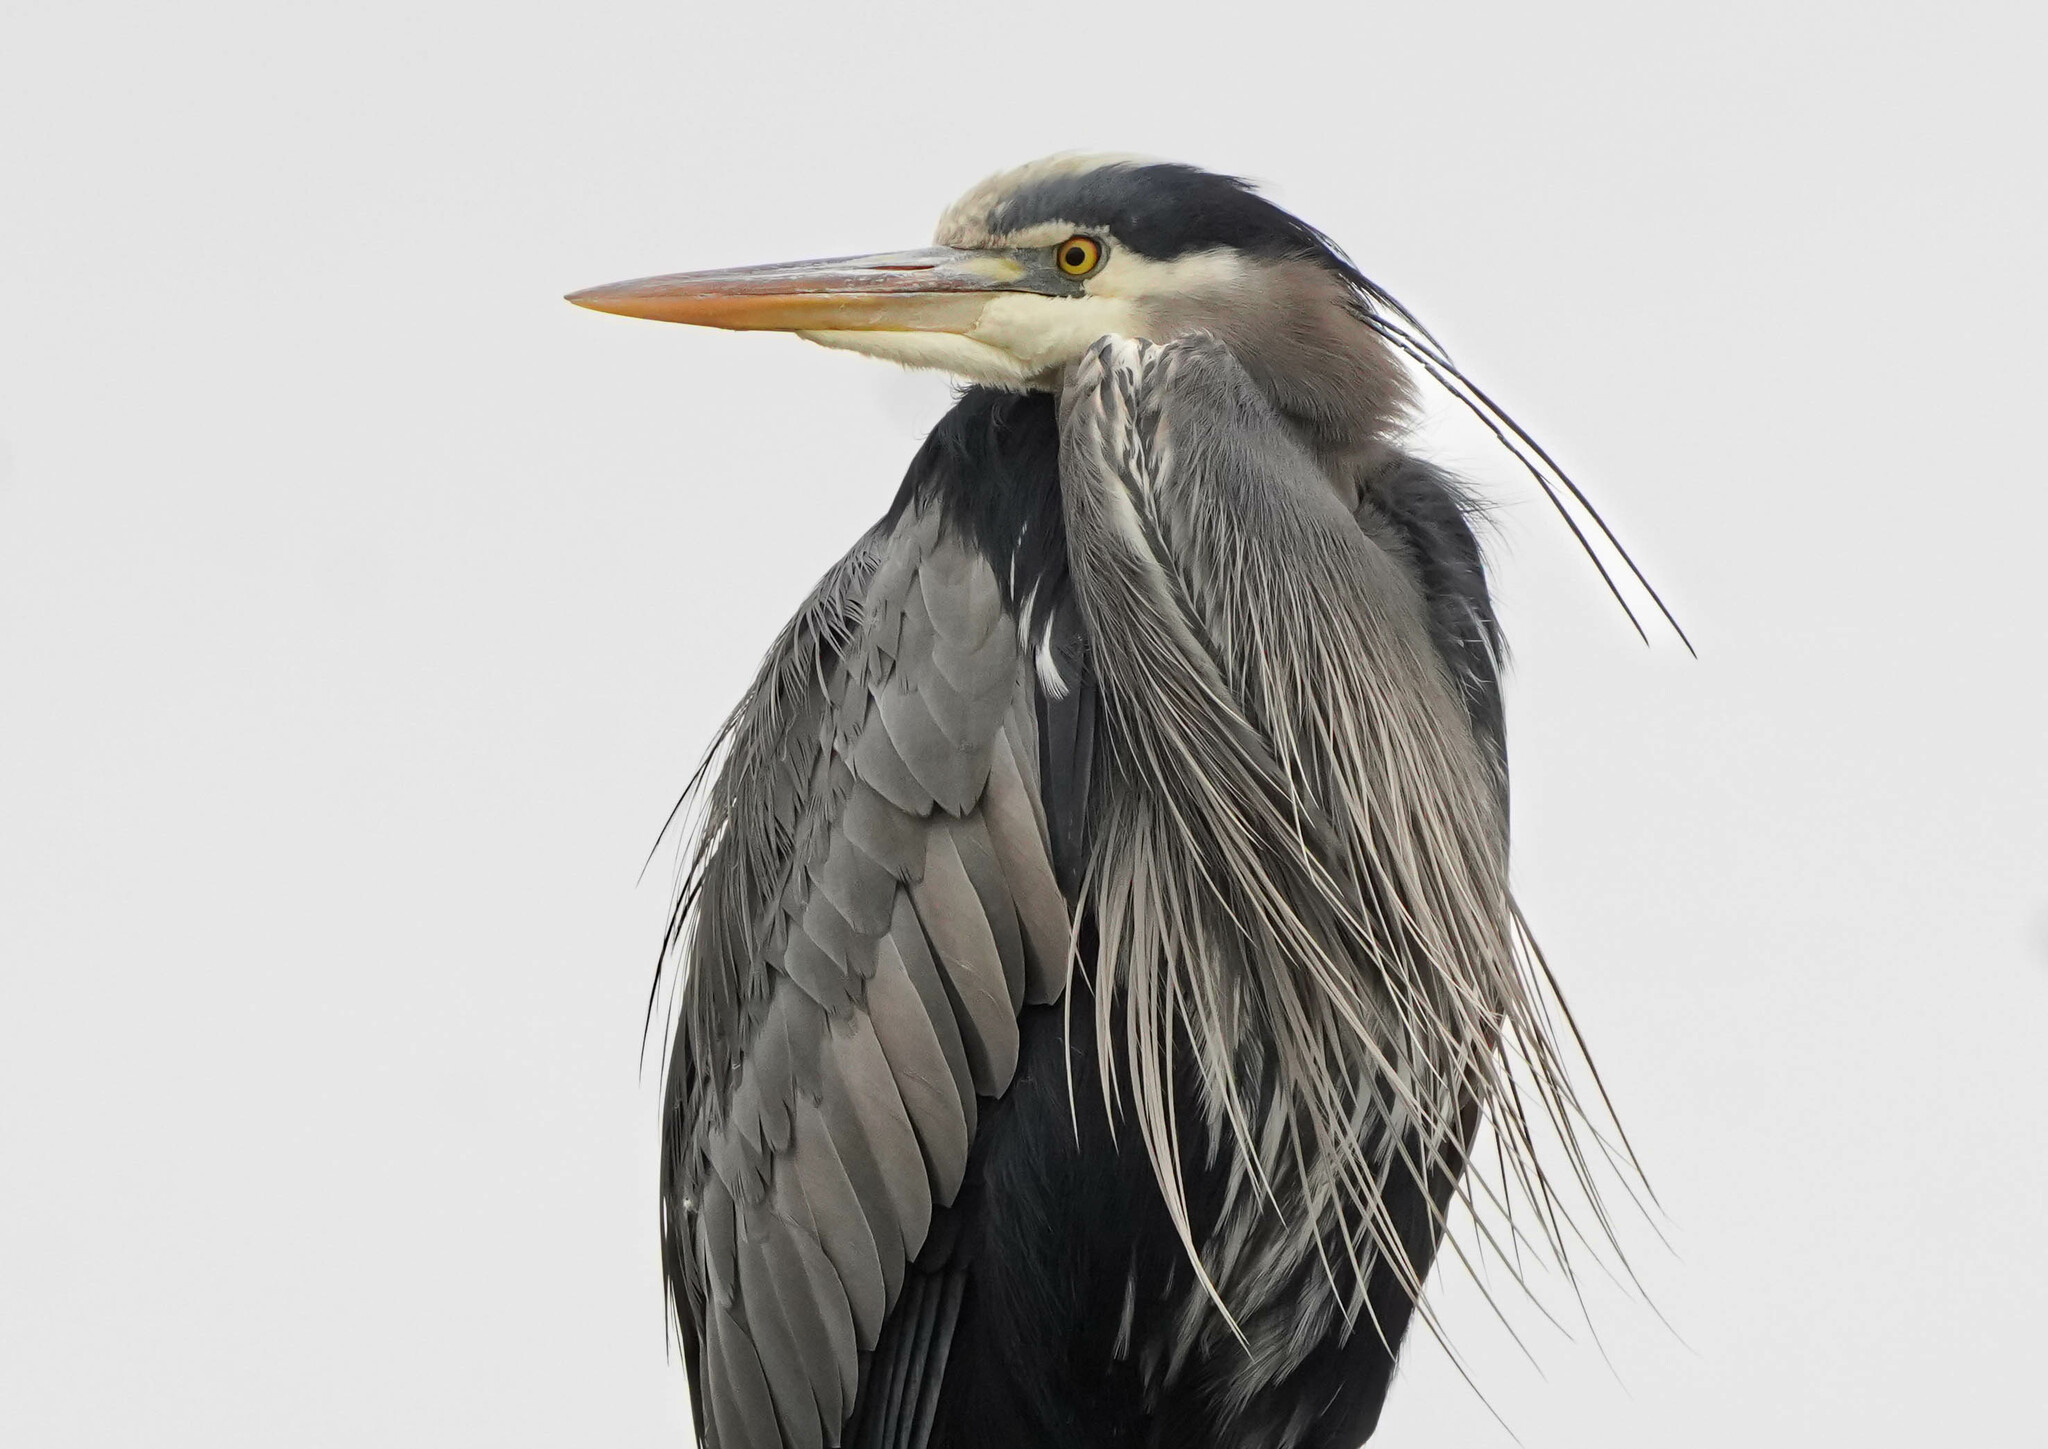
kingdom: Animalia
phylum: Chordata
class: Aves
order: Pelecaniformes
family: Ardeidae
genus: Ardea
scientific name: Ardea herodias
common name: Great blue heron
